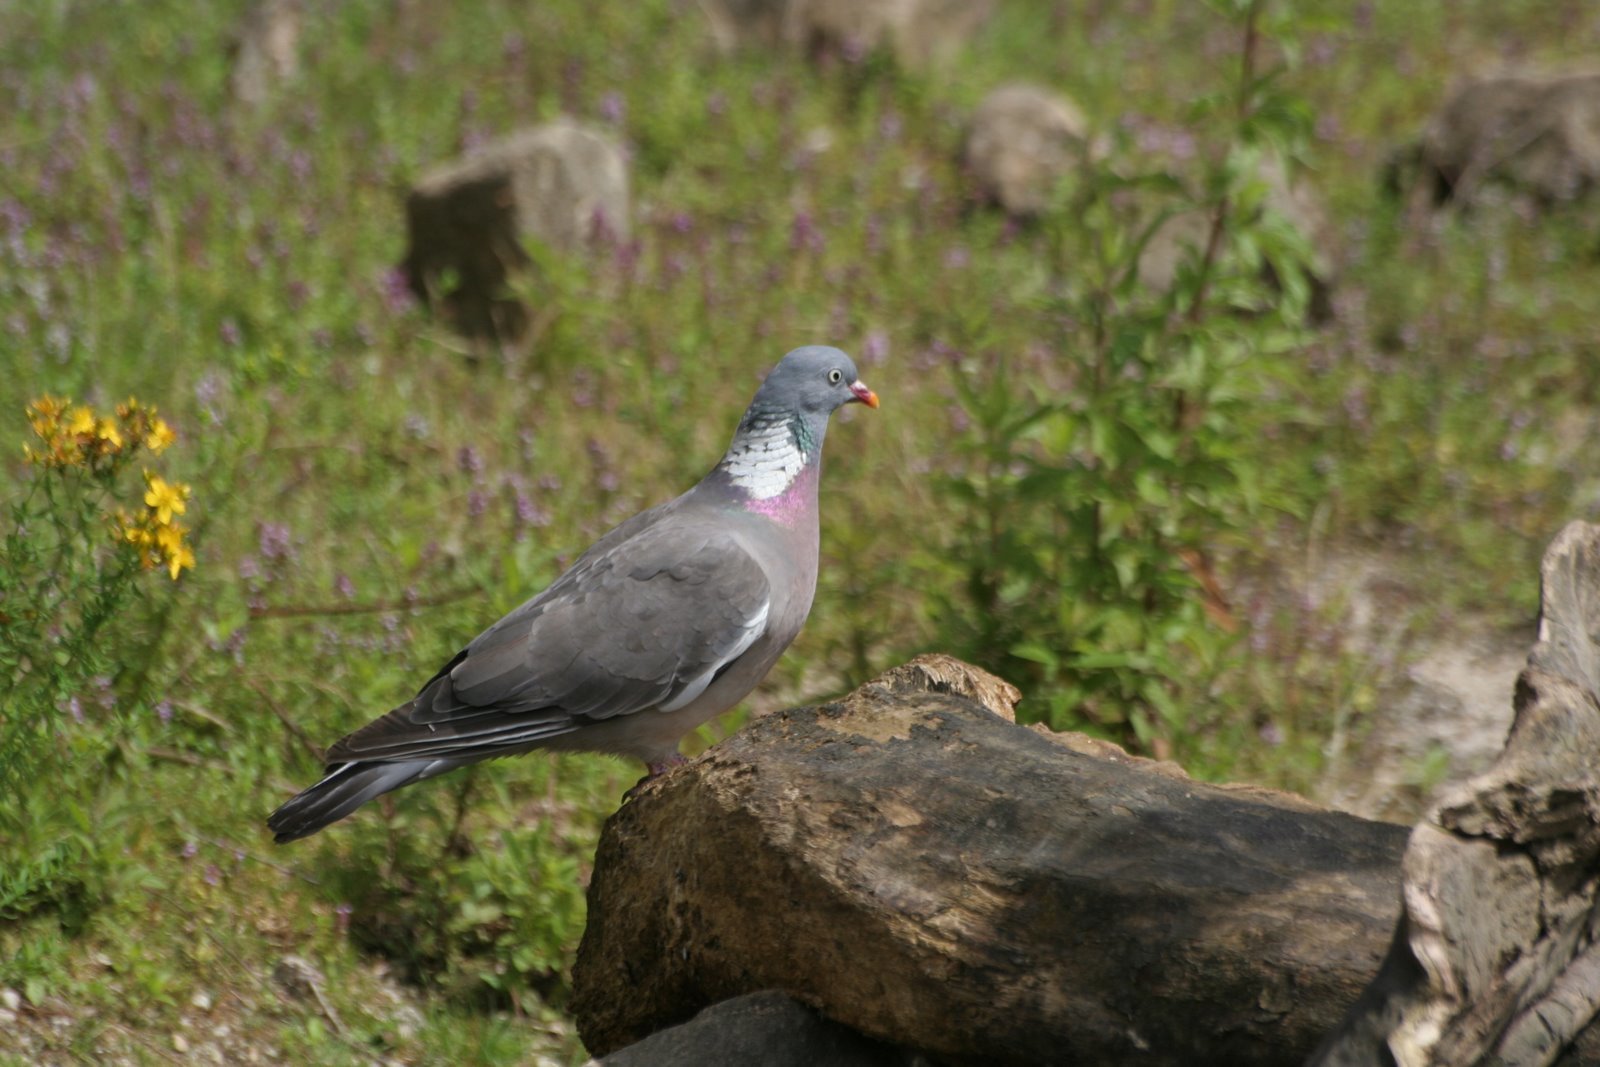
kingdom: Animalia
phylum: Chordata
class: Aves
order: Columbiformes
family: Columbidae
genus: Columba
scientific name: Columba palumbus
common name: Common wood pigeon
